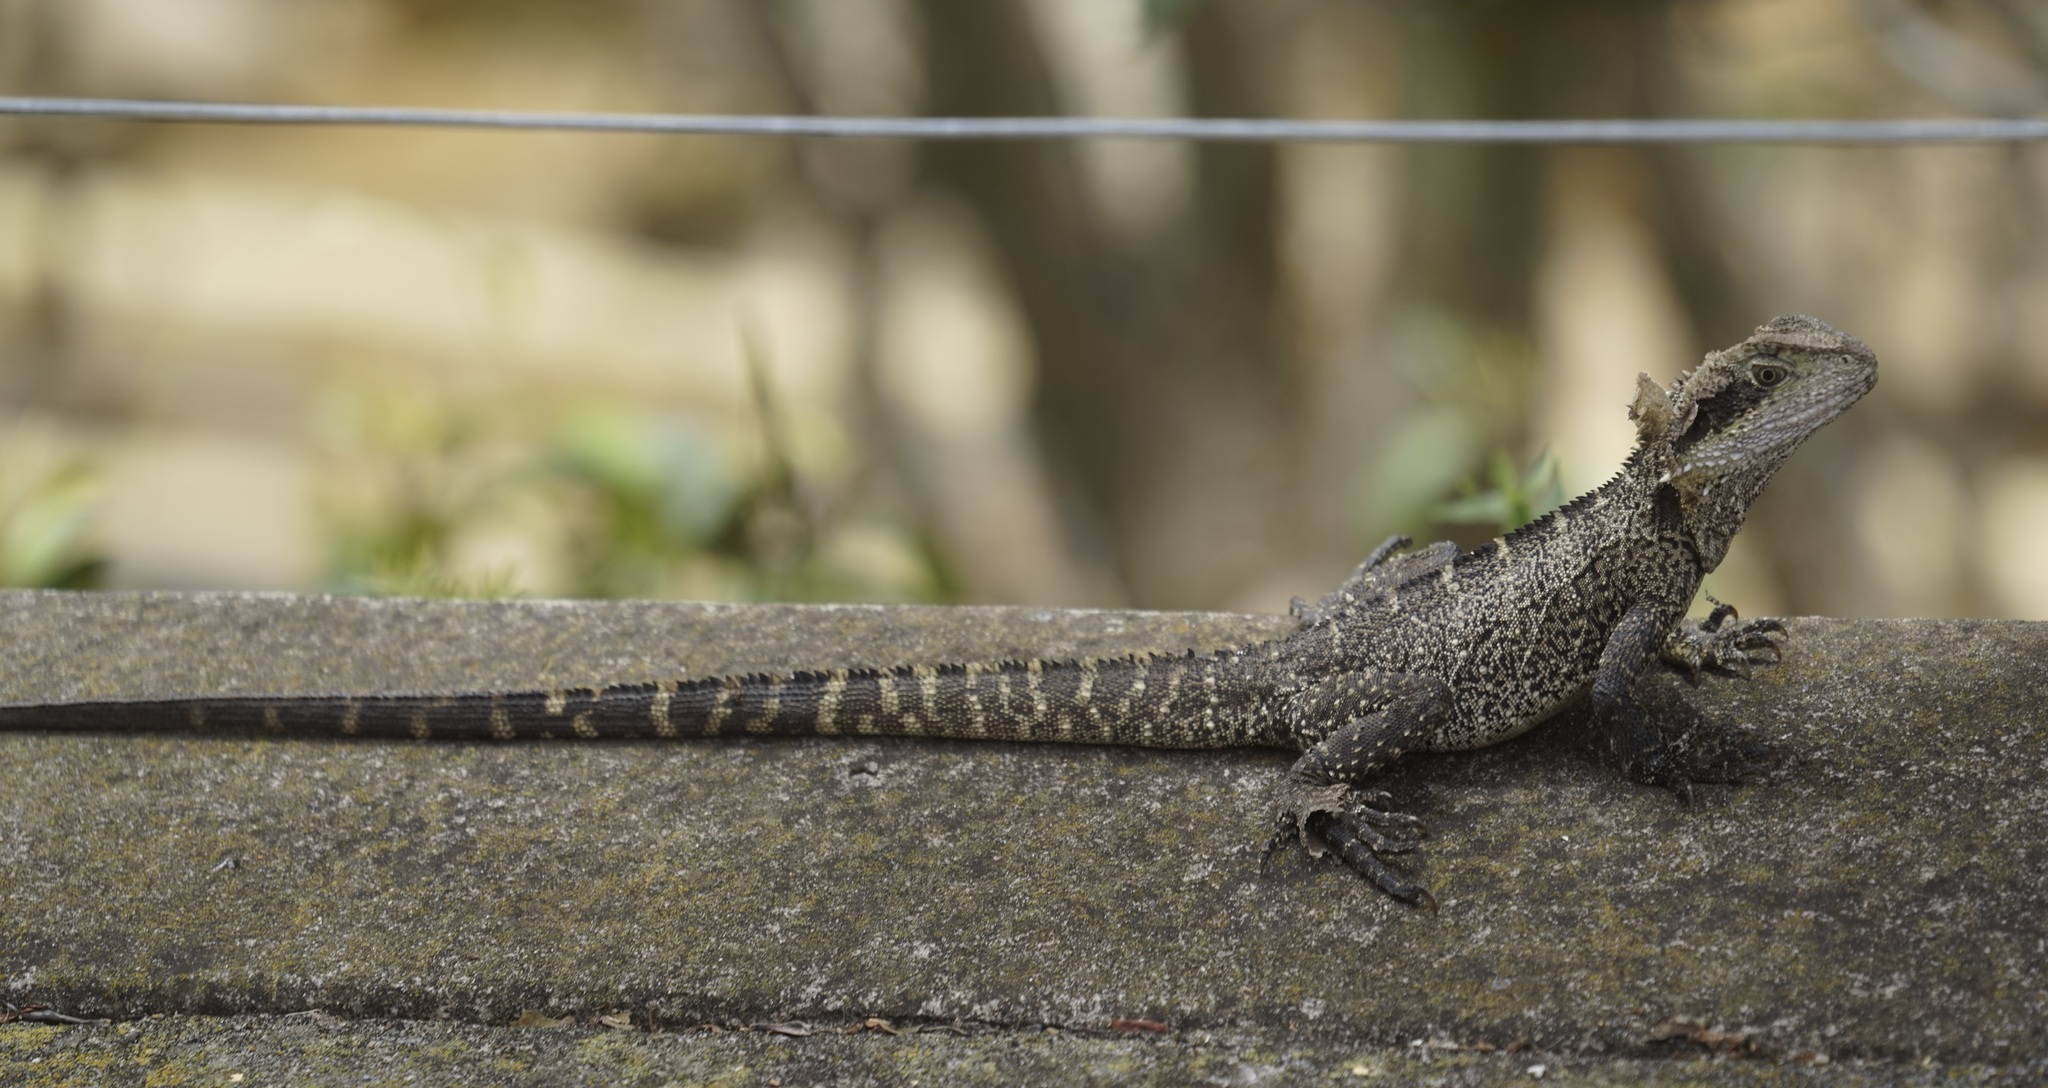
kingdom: Animalia
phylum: Chordata
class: Squamata
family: Agamidae
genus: Intellagama
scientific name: Intellagama lesueurii
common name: Eastern water dragon
